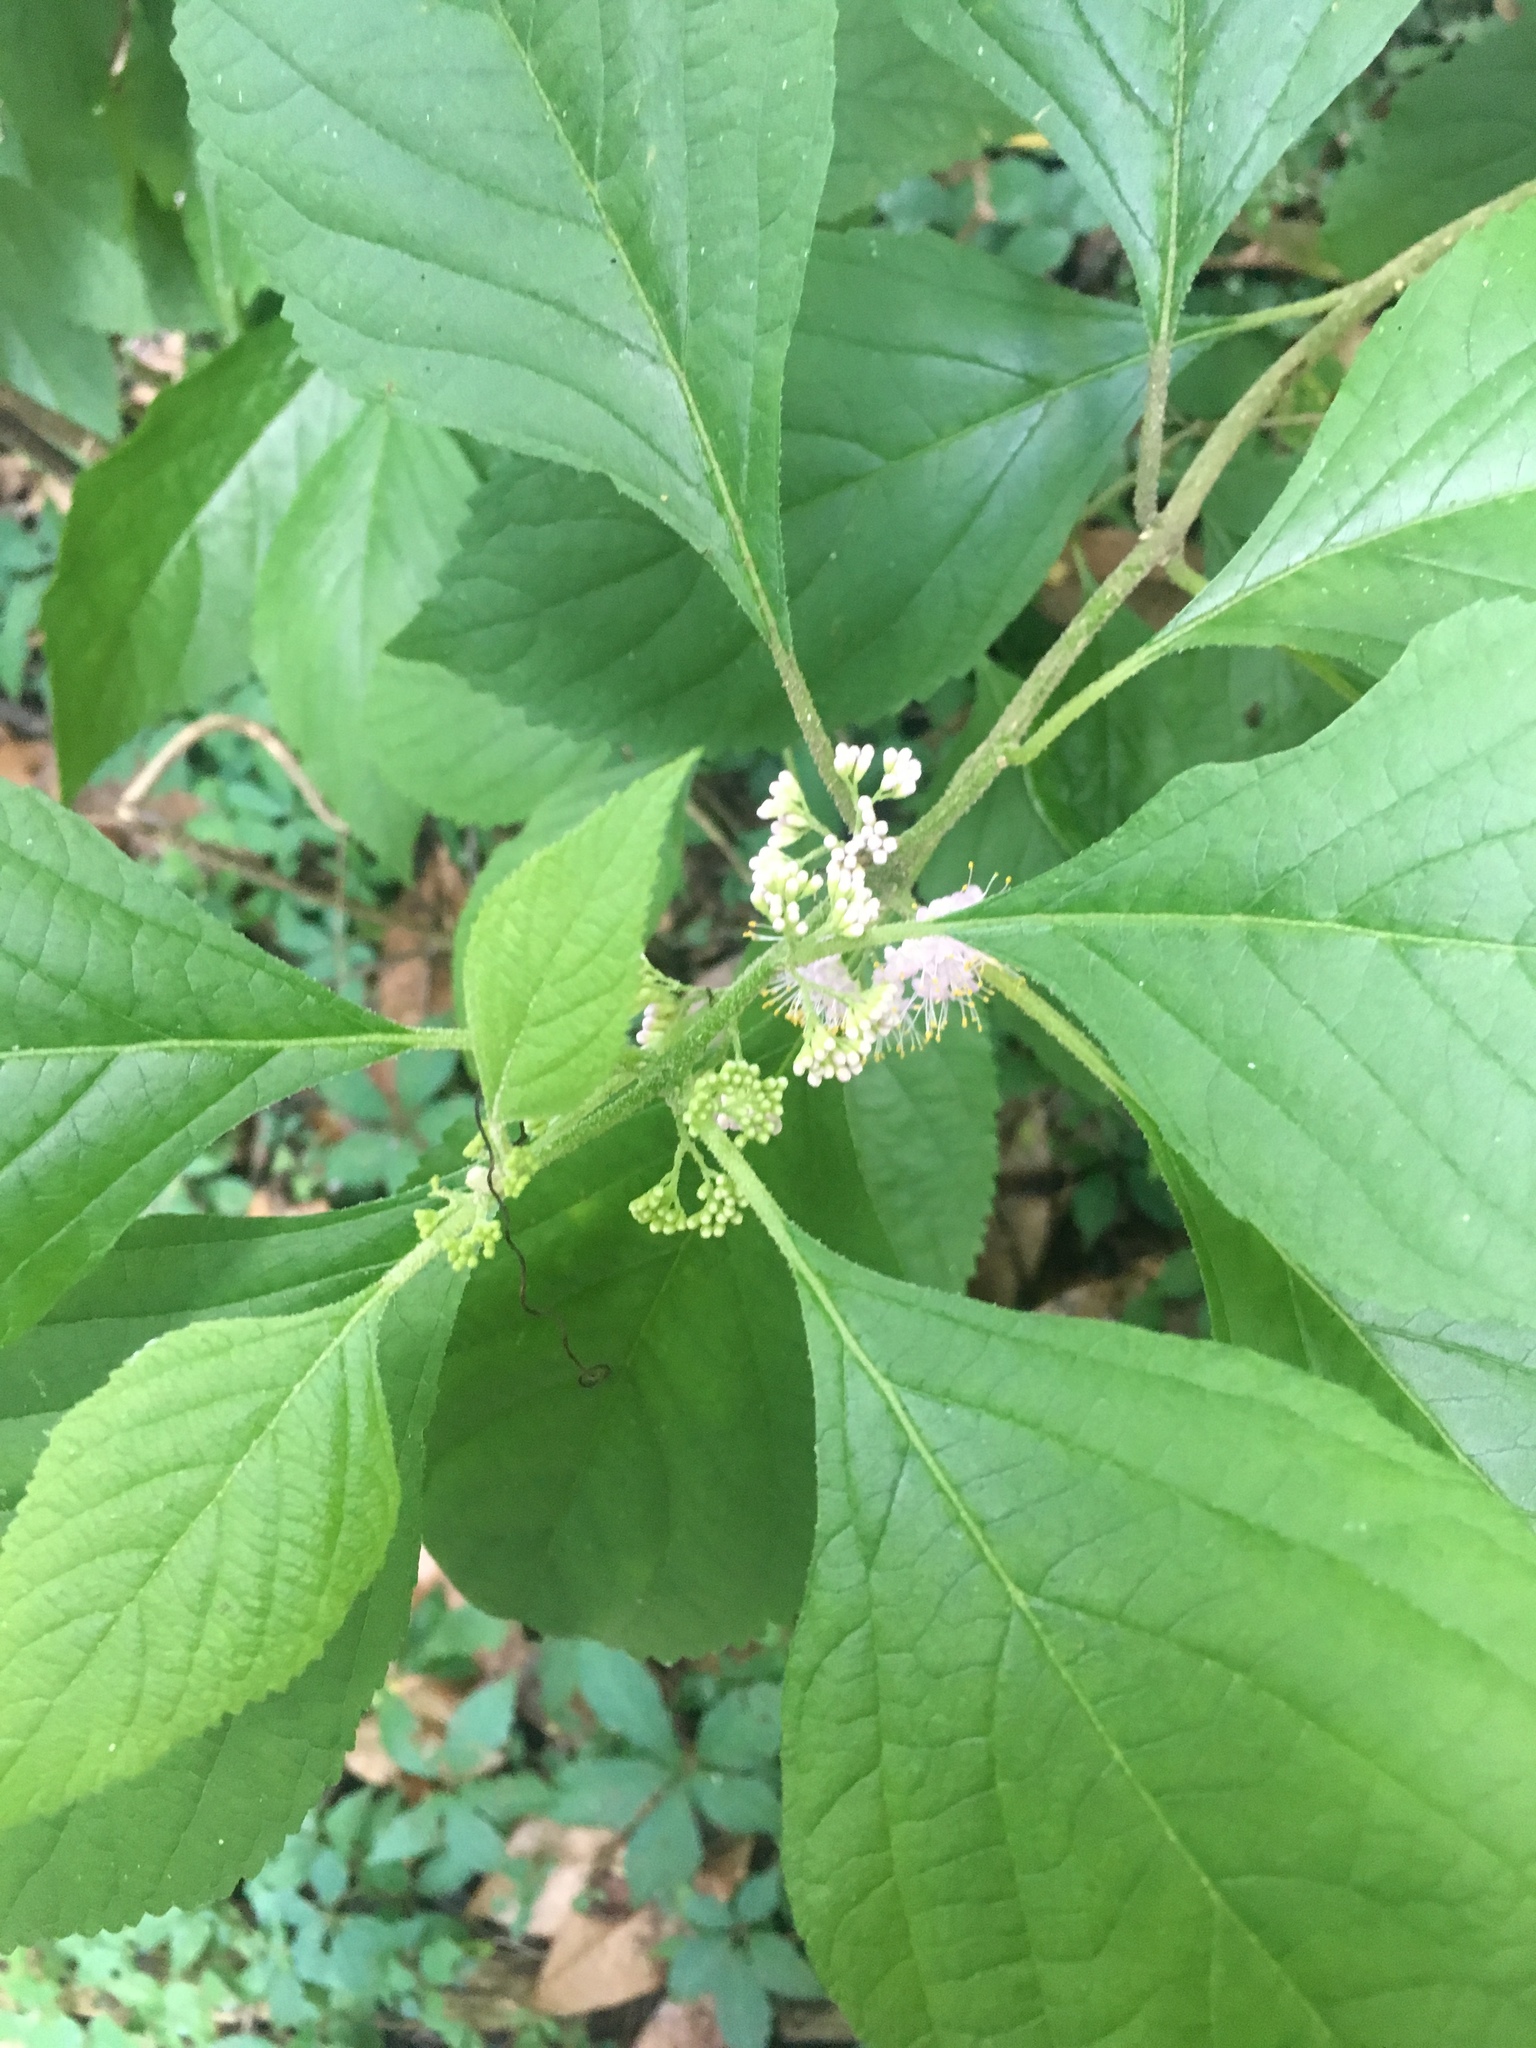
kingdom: Plantae
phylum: Tracheophyta
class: Magnoliopsida
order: Lamiales
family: Lamiaceae
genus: Callicarpa
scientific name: Callicarpa americana
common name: American beautyberry
